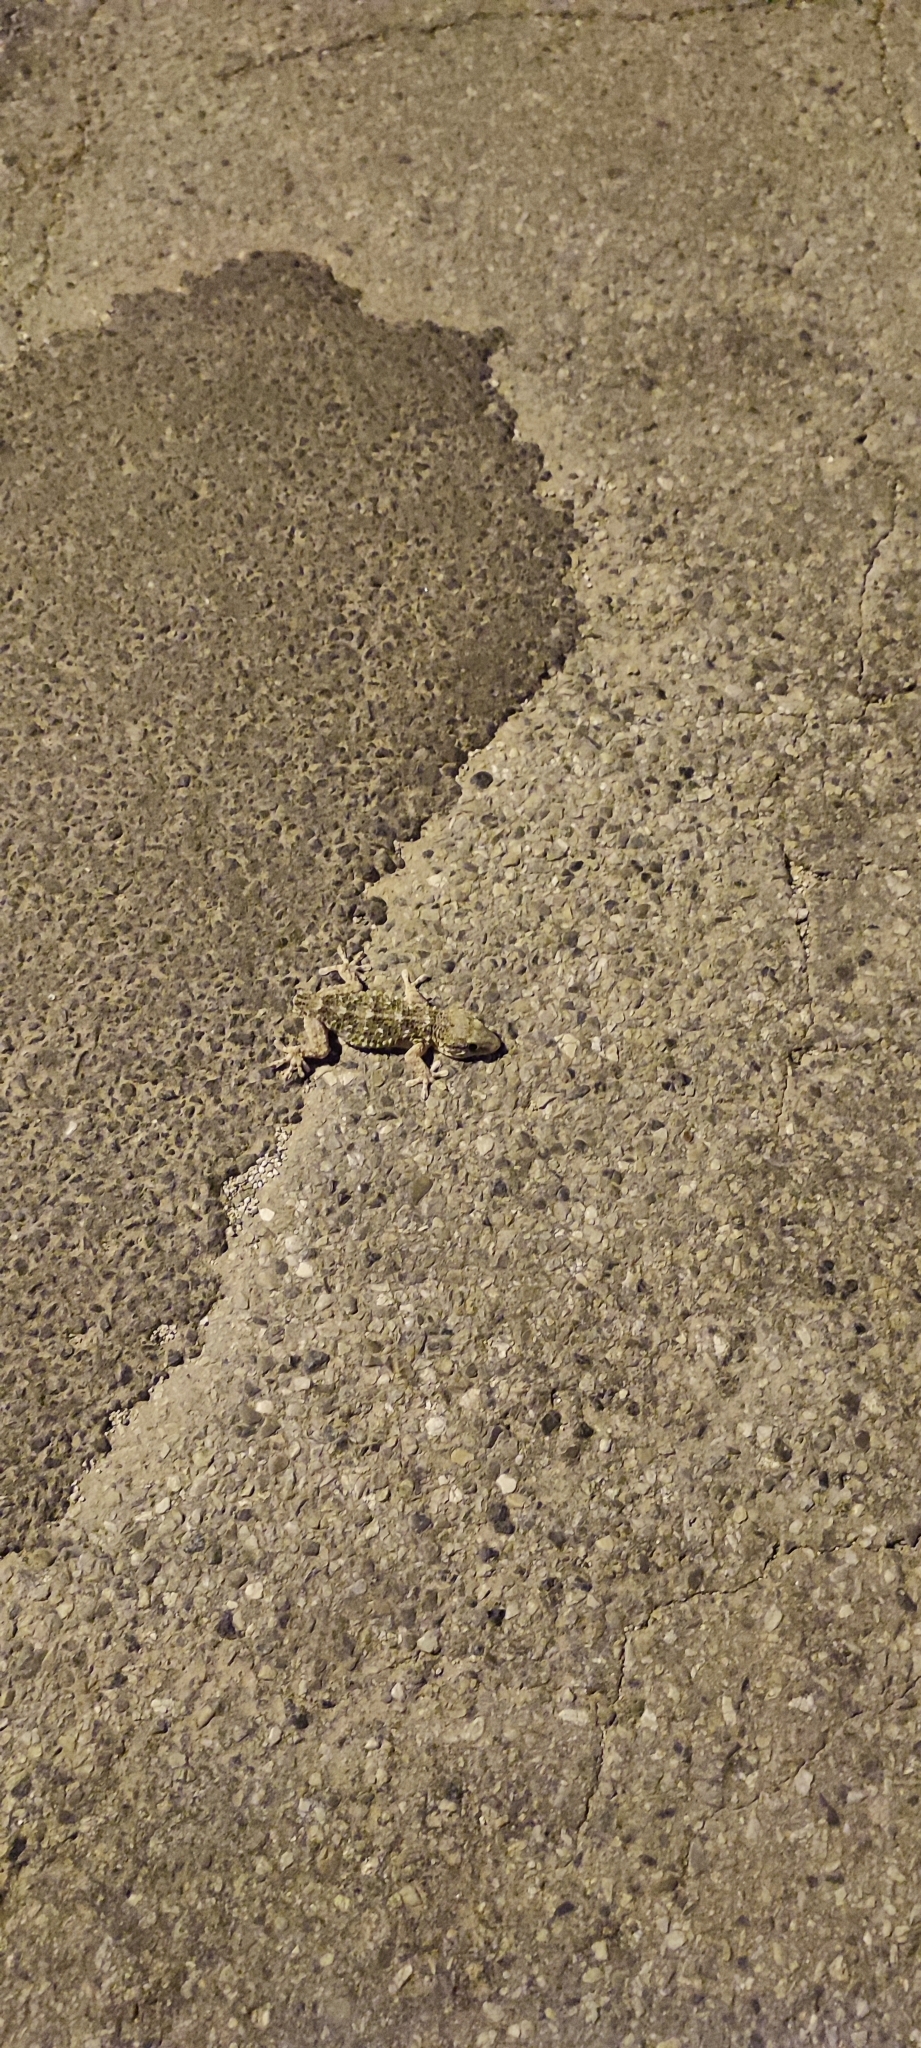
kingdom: Animalia
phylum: Chordata
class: Squamata
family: Phyllodactylidae
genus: Tarentola
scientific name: Tarentola mauritanica
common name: Moorish gecko
